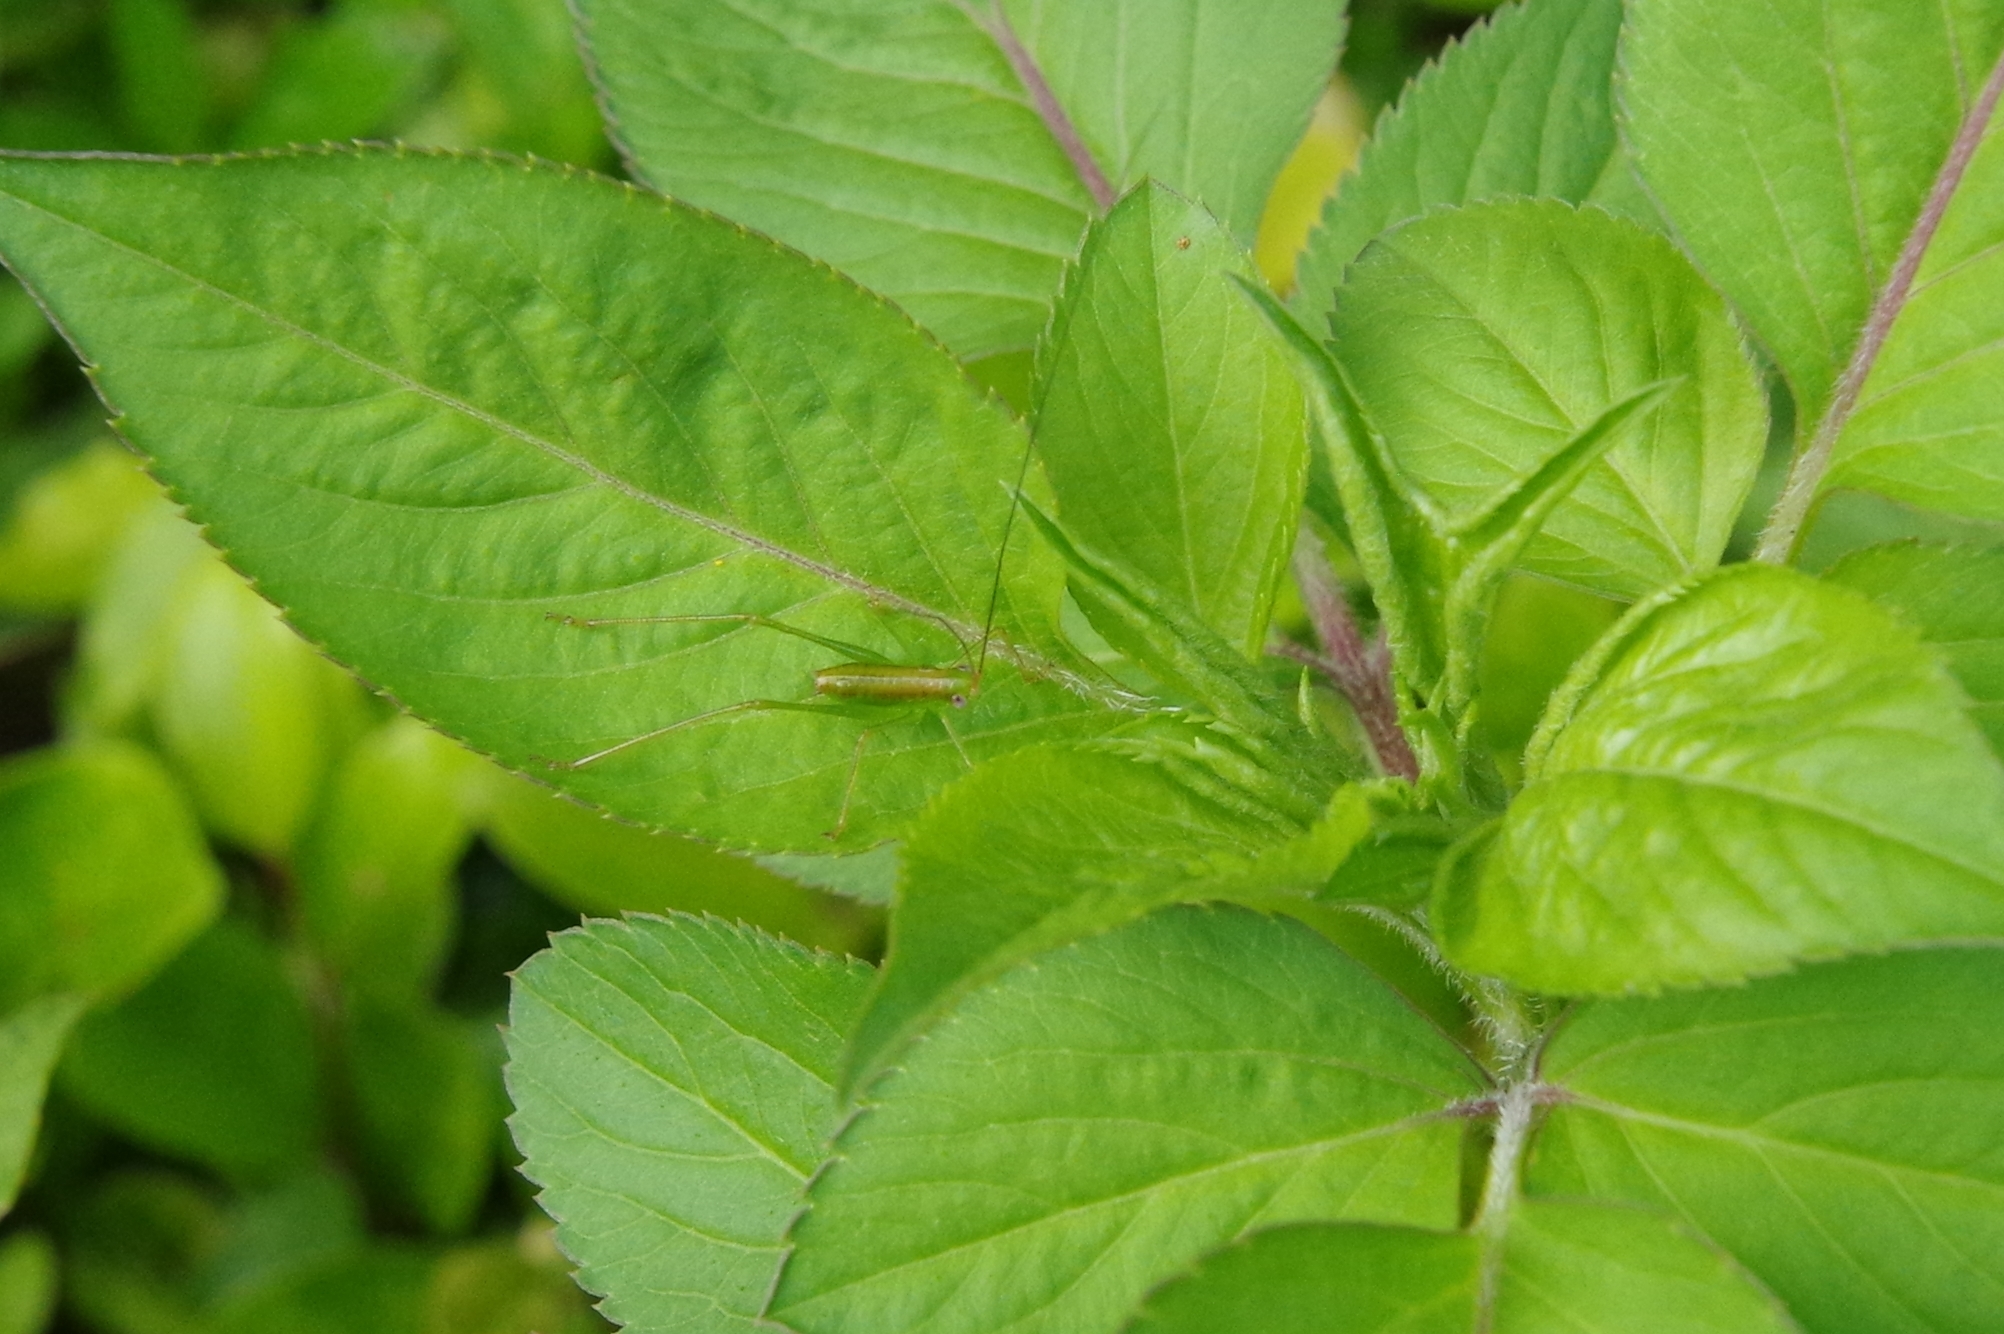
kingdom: Animalia
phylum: Arthropoda
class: Insecta
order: Orthoptera
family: Tettigoniidae
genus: Psyrana
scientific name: Psyrana ryukyuensis
